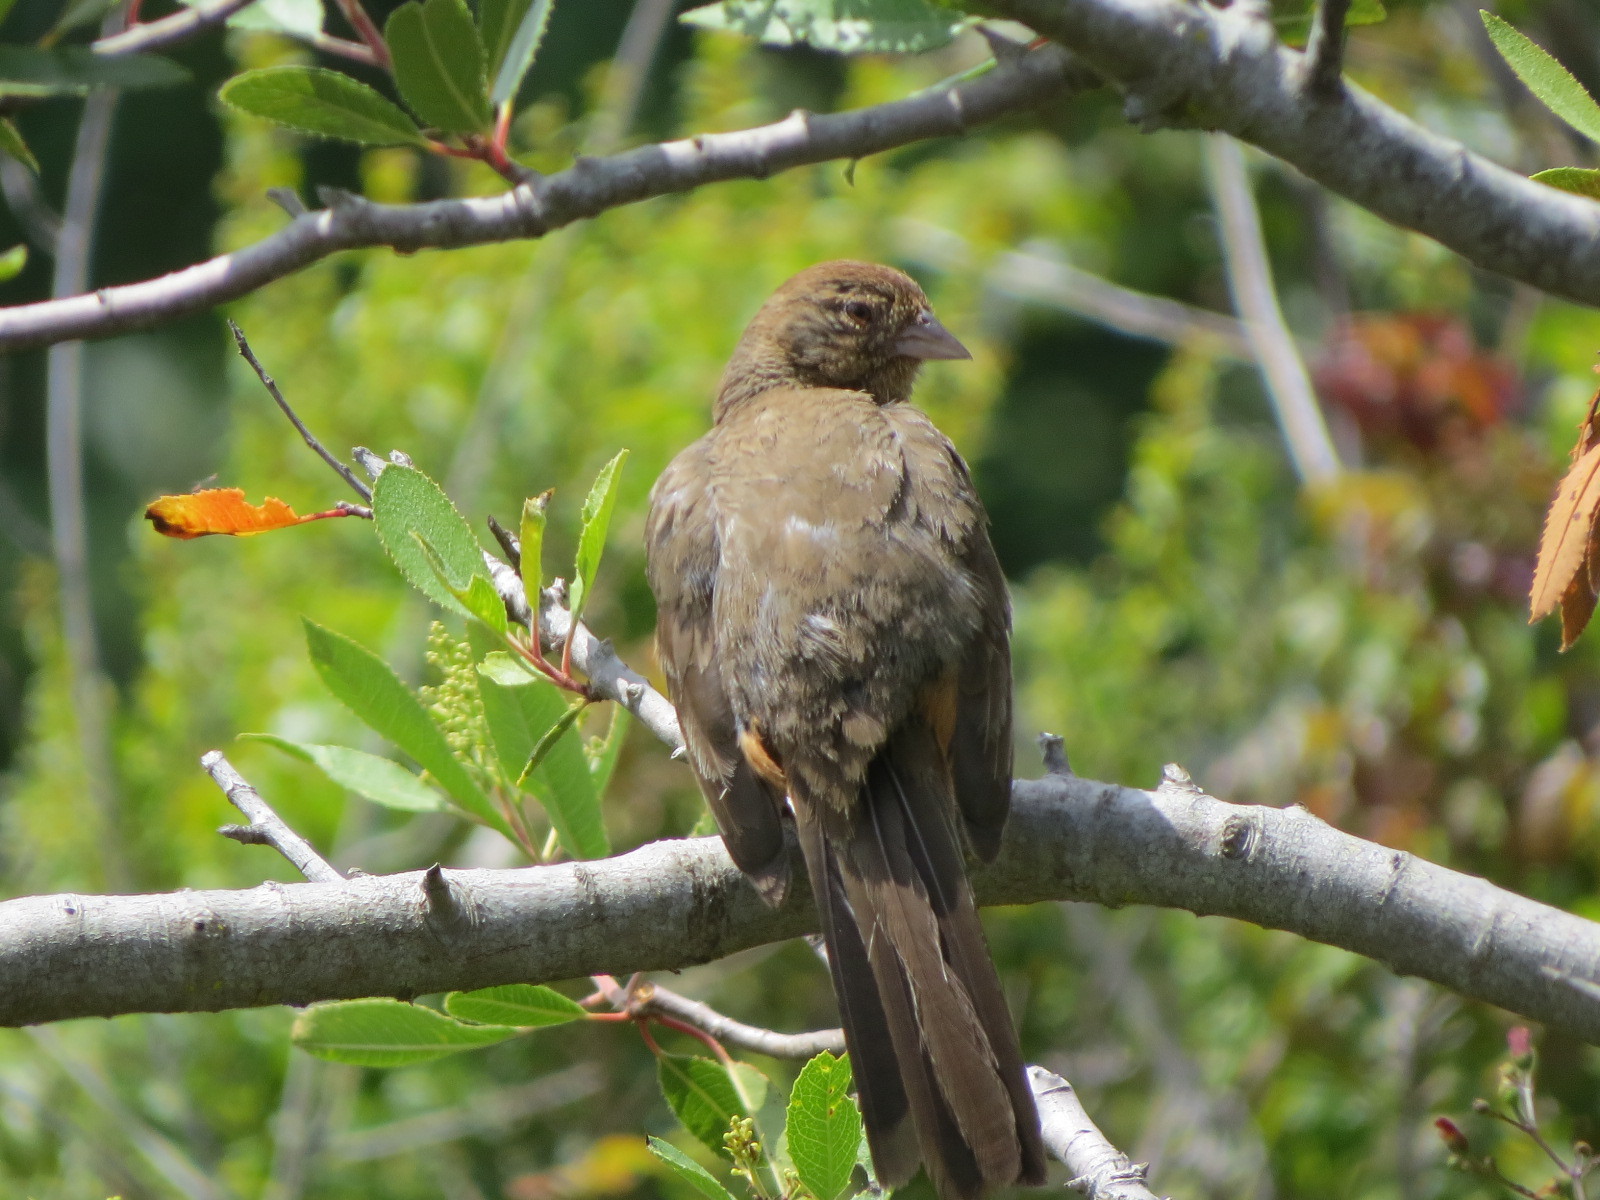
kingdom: Animalia
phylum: Chordata
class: Aves
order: Passeriformes
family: Passerellidae
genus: Melozone
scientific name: Melozone crissalis
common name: California towhee
